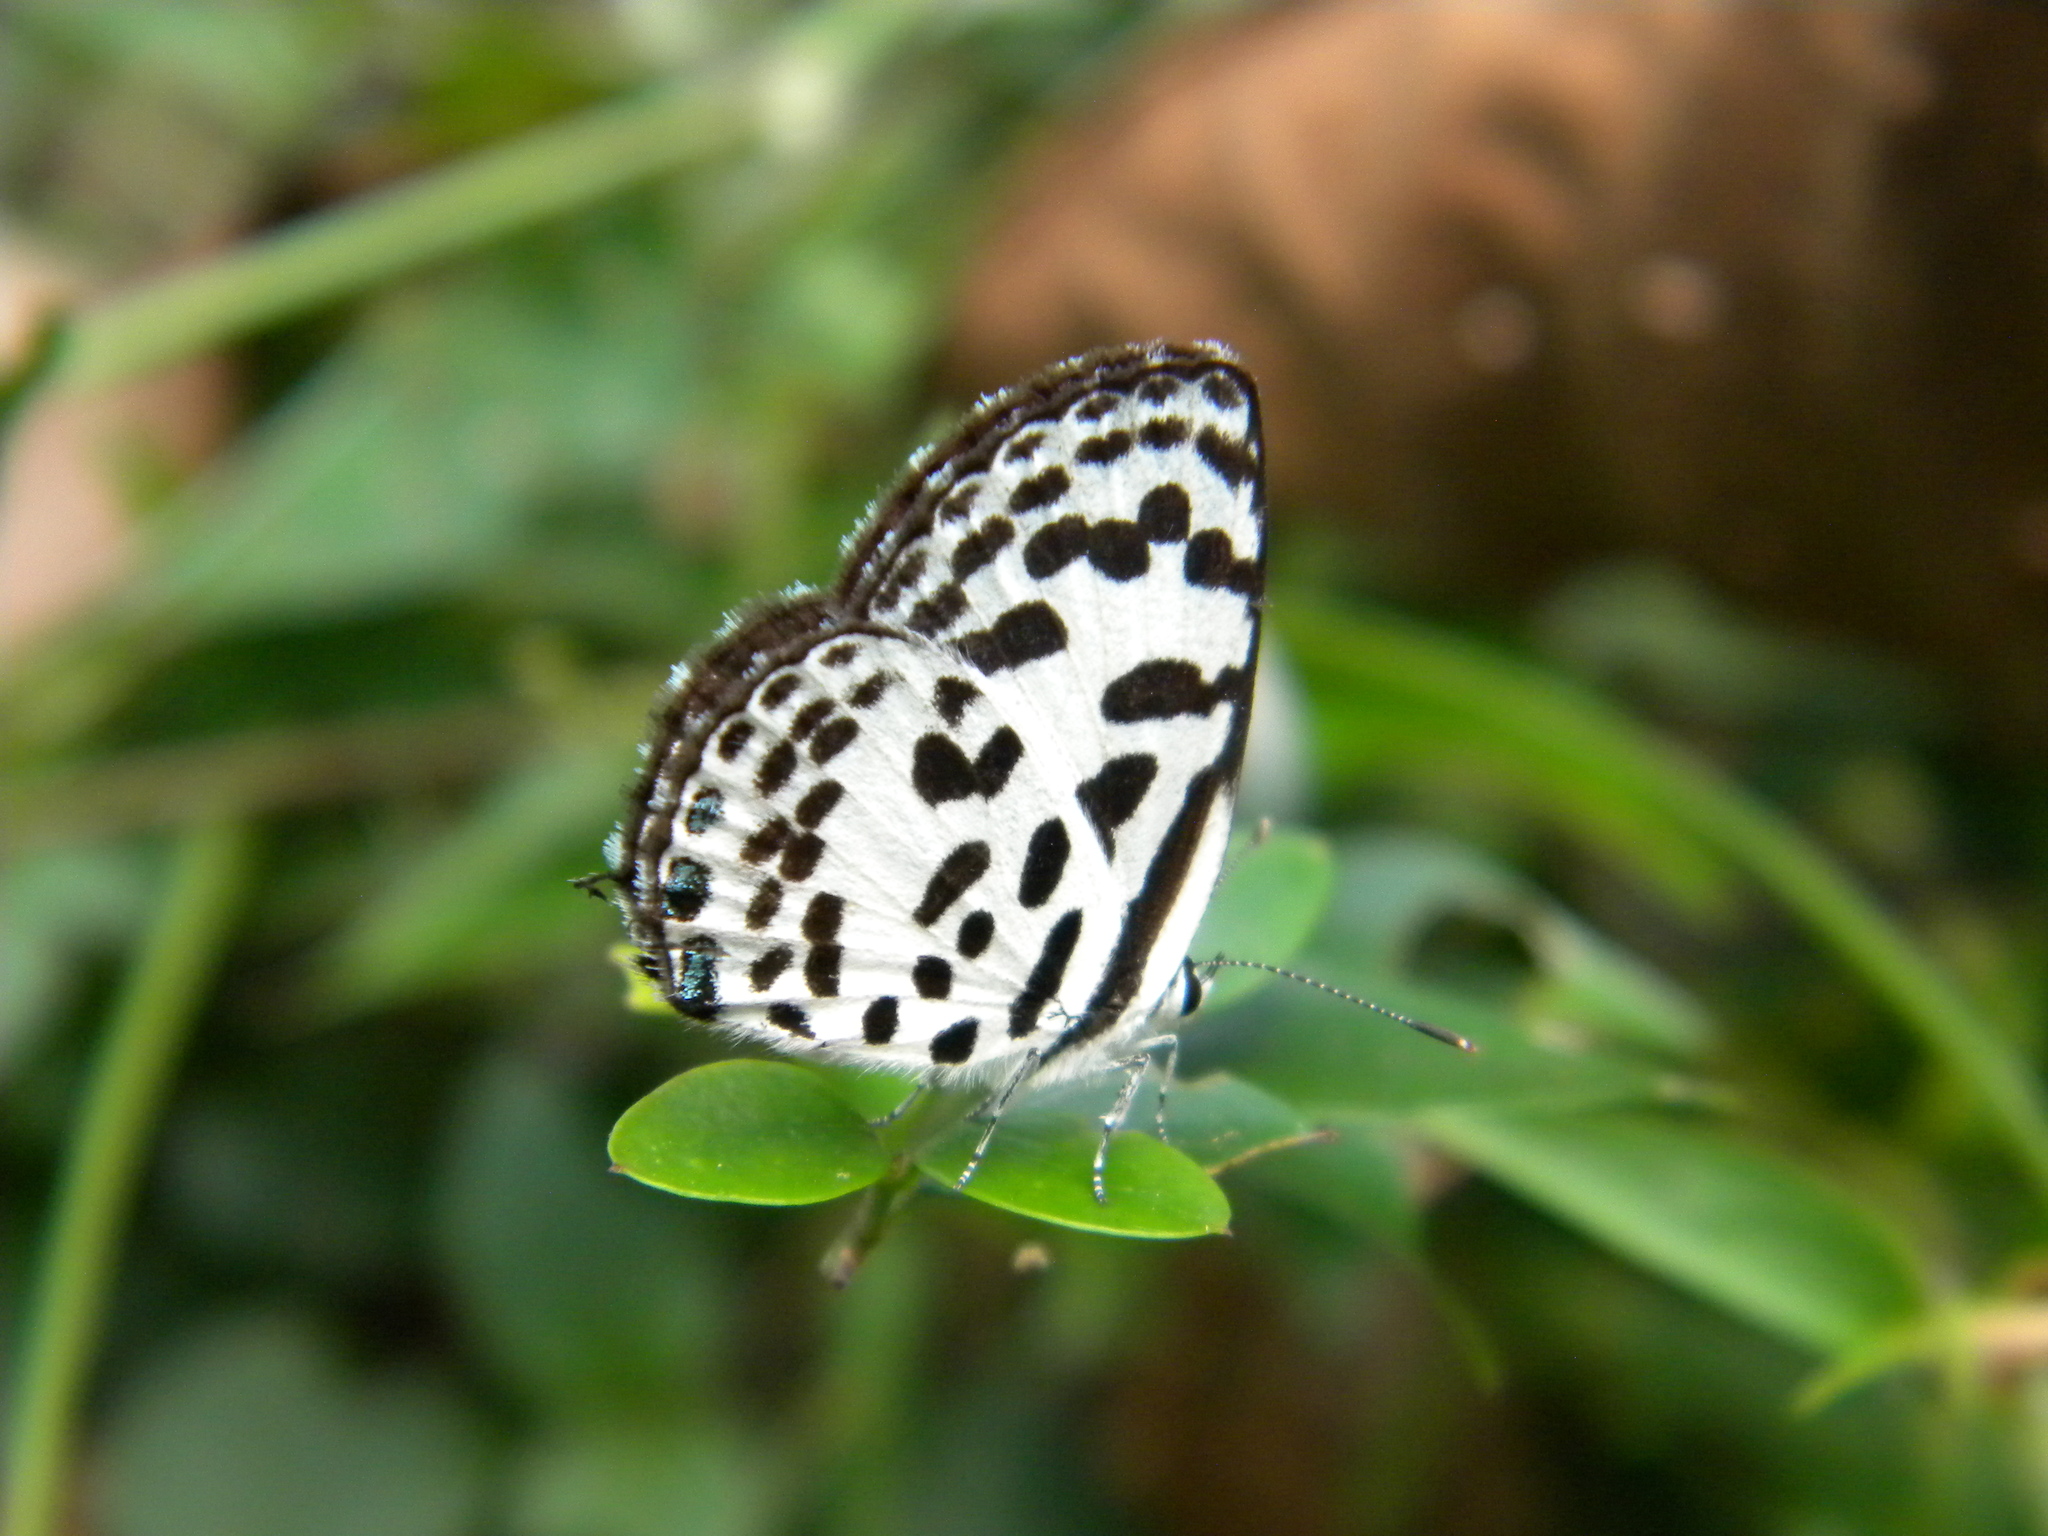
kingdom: Animalia
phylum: Arthropoda
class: Insecta
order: Lepidoptera
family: Lycaenidae
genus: Castalius
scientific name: Castalius rosimon
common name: Common pierrot
